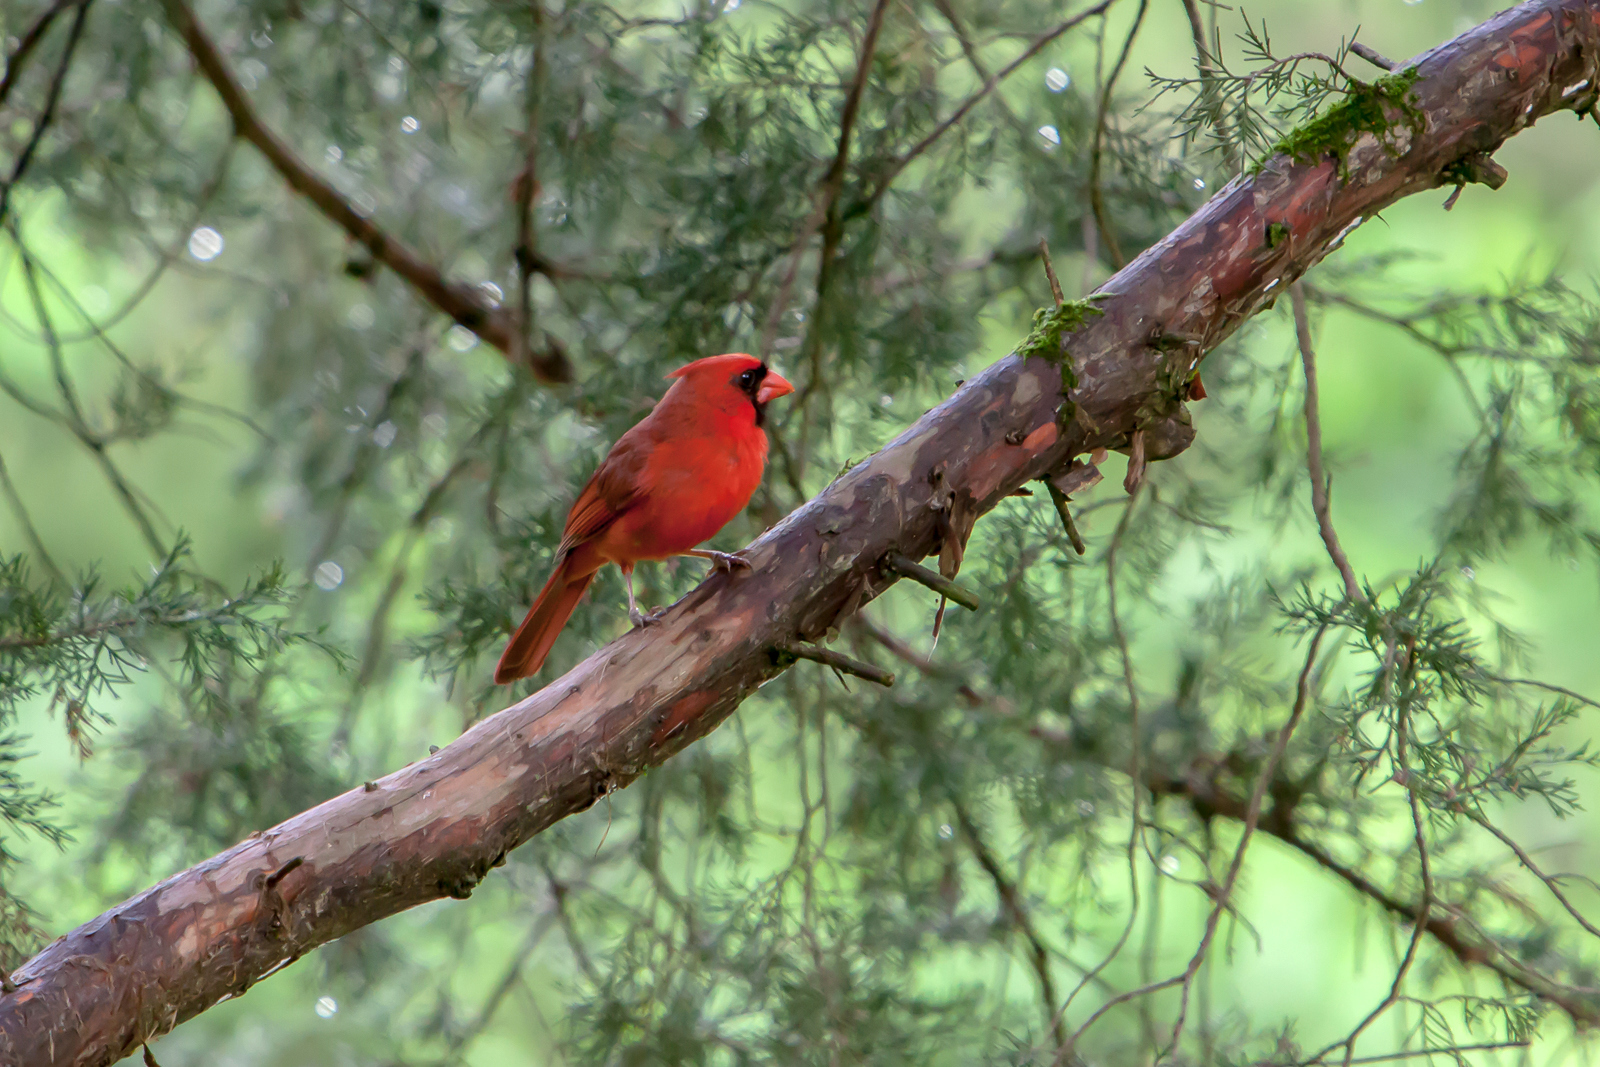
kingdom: Animalia
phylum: Chordata
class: Aves
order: Passeriformes
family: Cardinalidae
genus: Cardinalis
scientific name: Cardinalis cardinalis
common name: Northern cardinal
